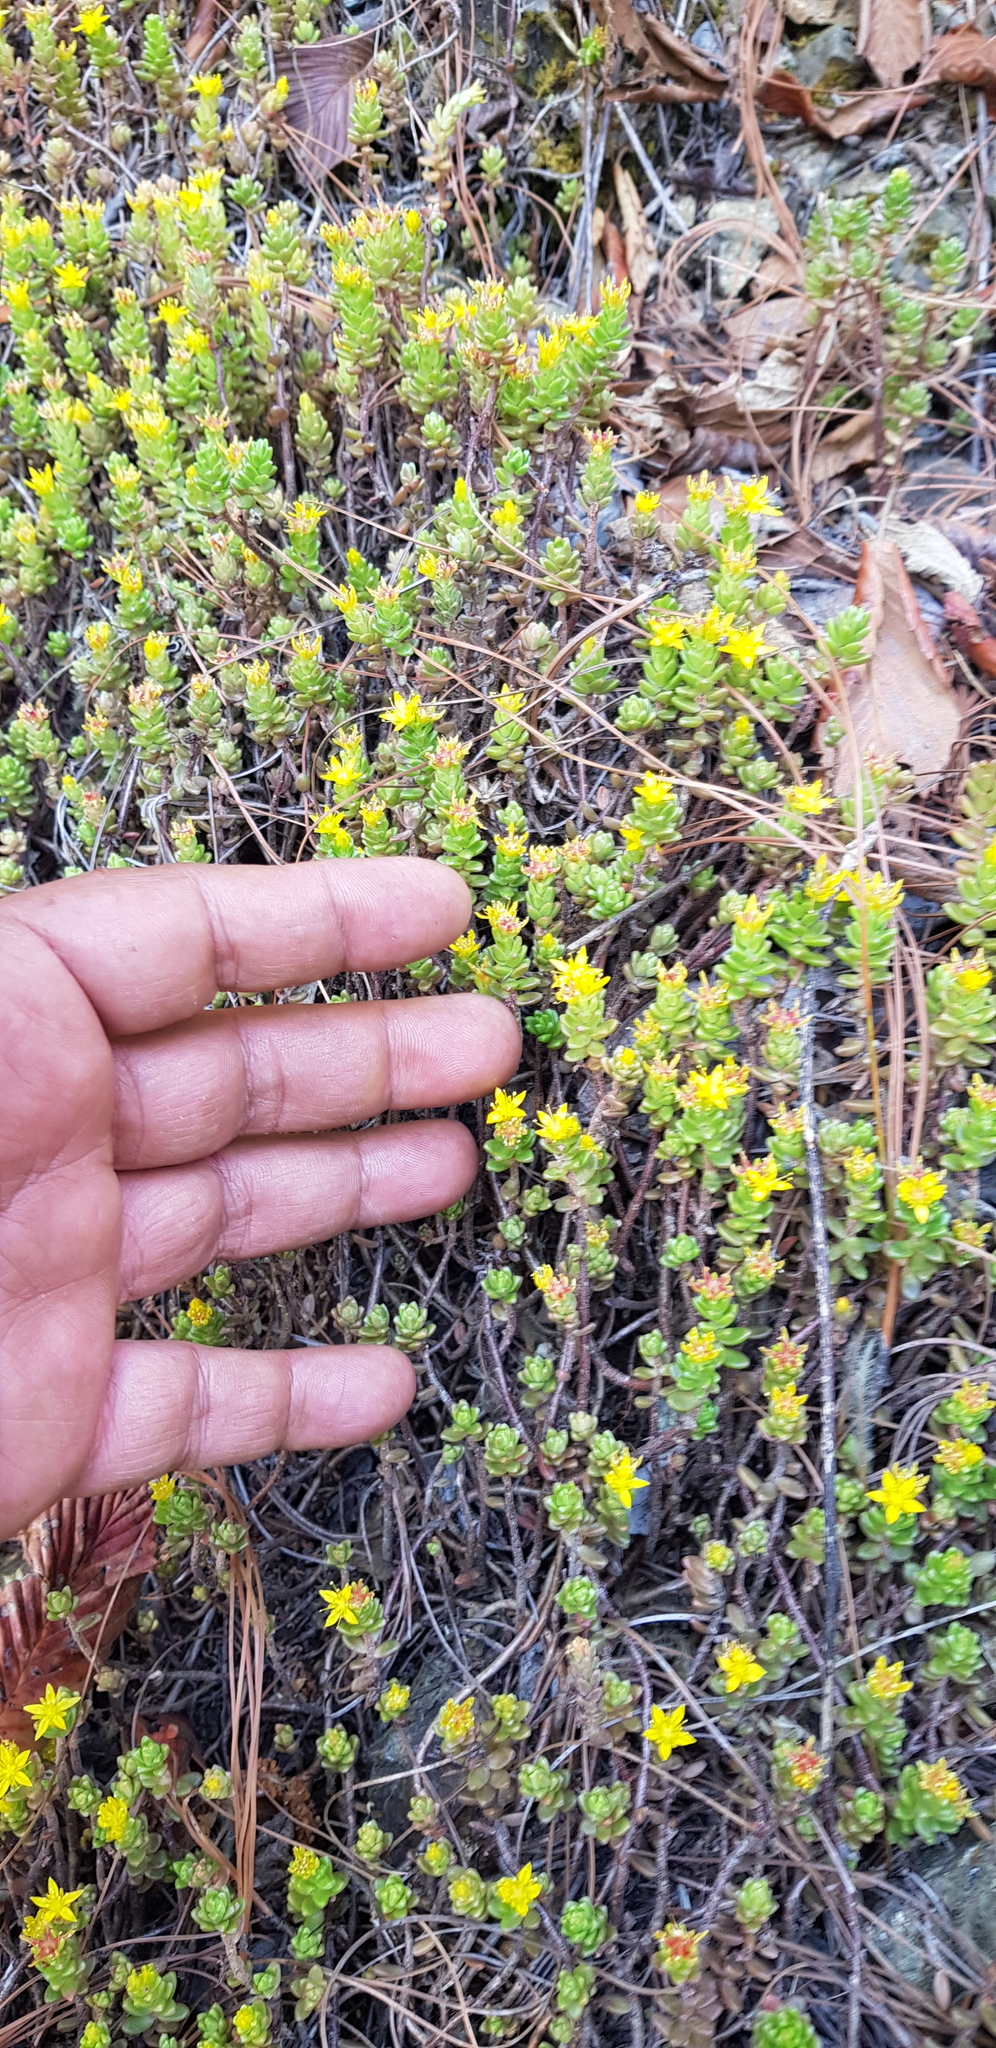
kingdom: Plantae
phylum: Tracheophyta
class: Magnoliopsida
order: Saxifragales
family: Crassulaceae
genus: Sedum
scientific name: Sedum oaxacanum
